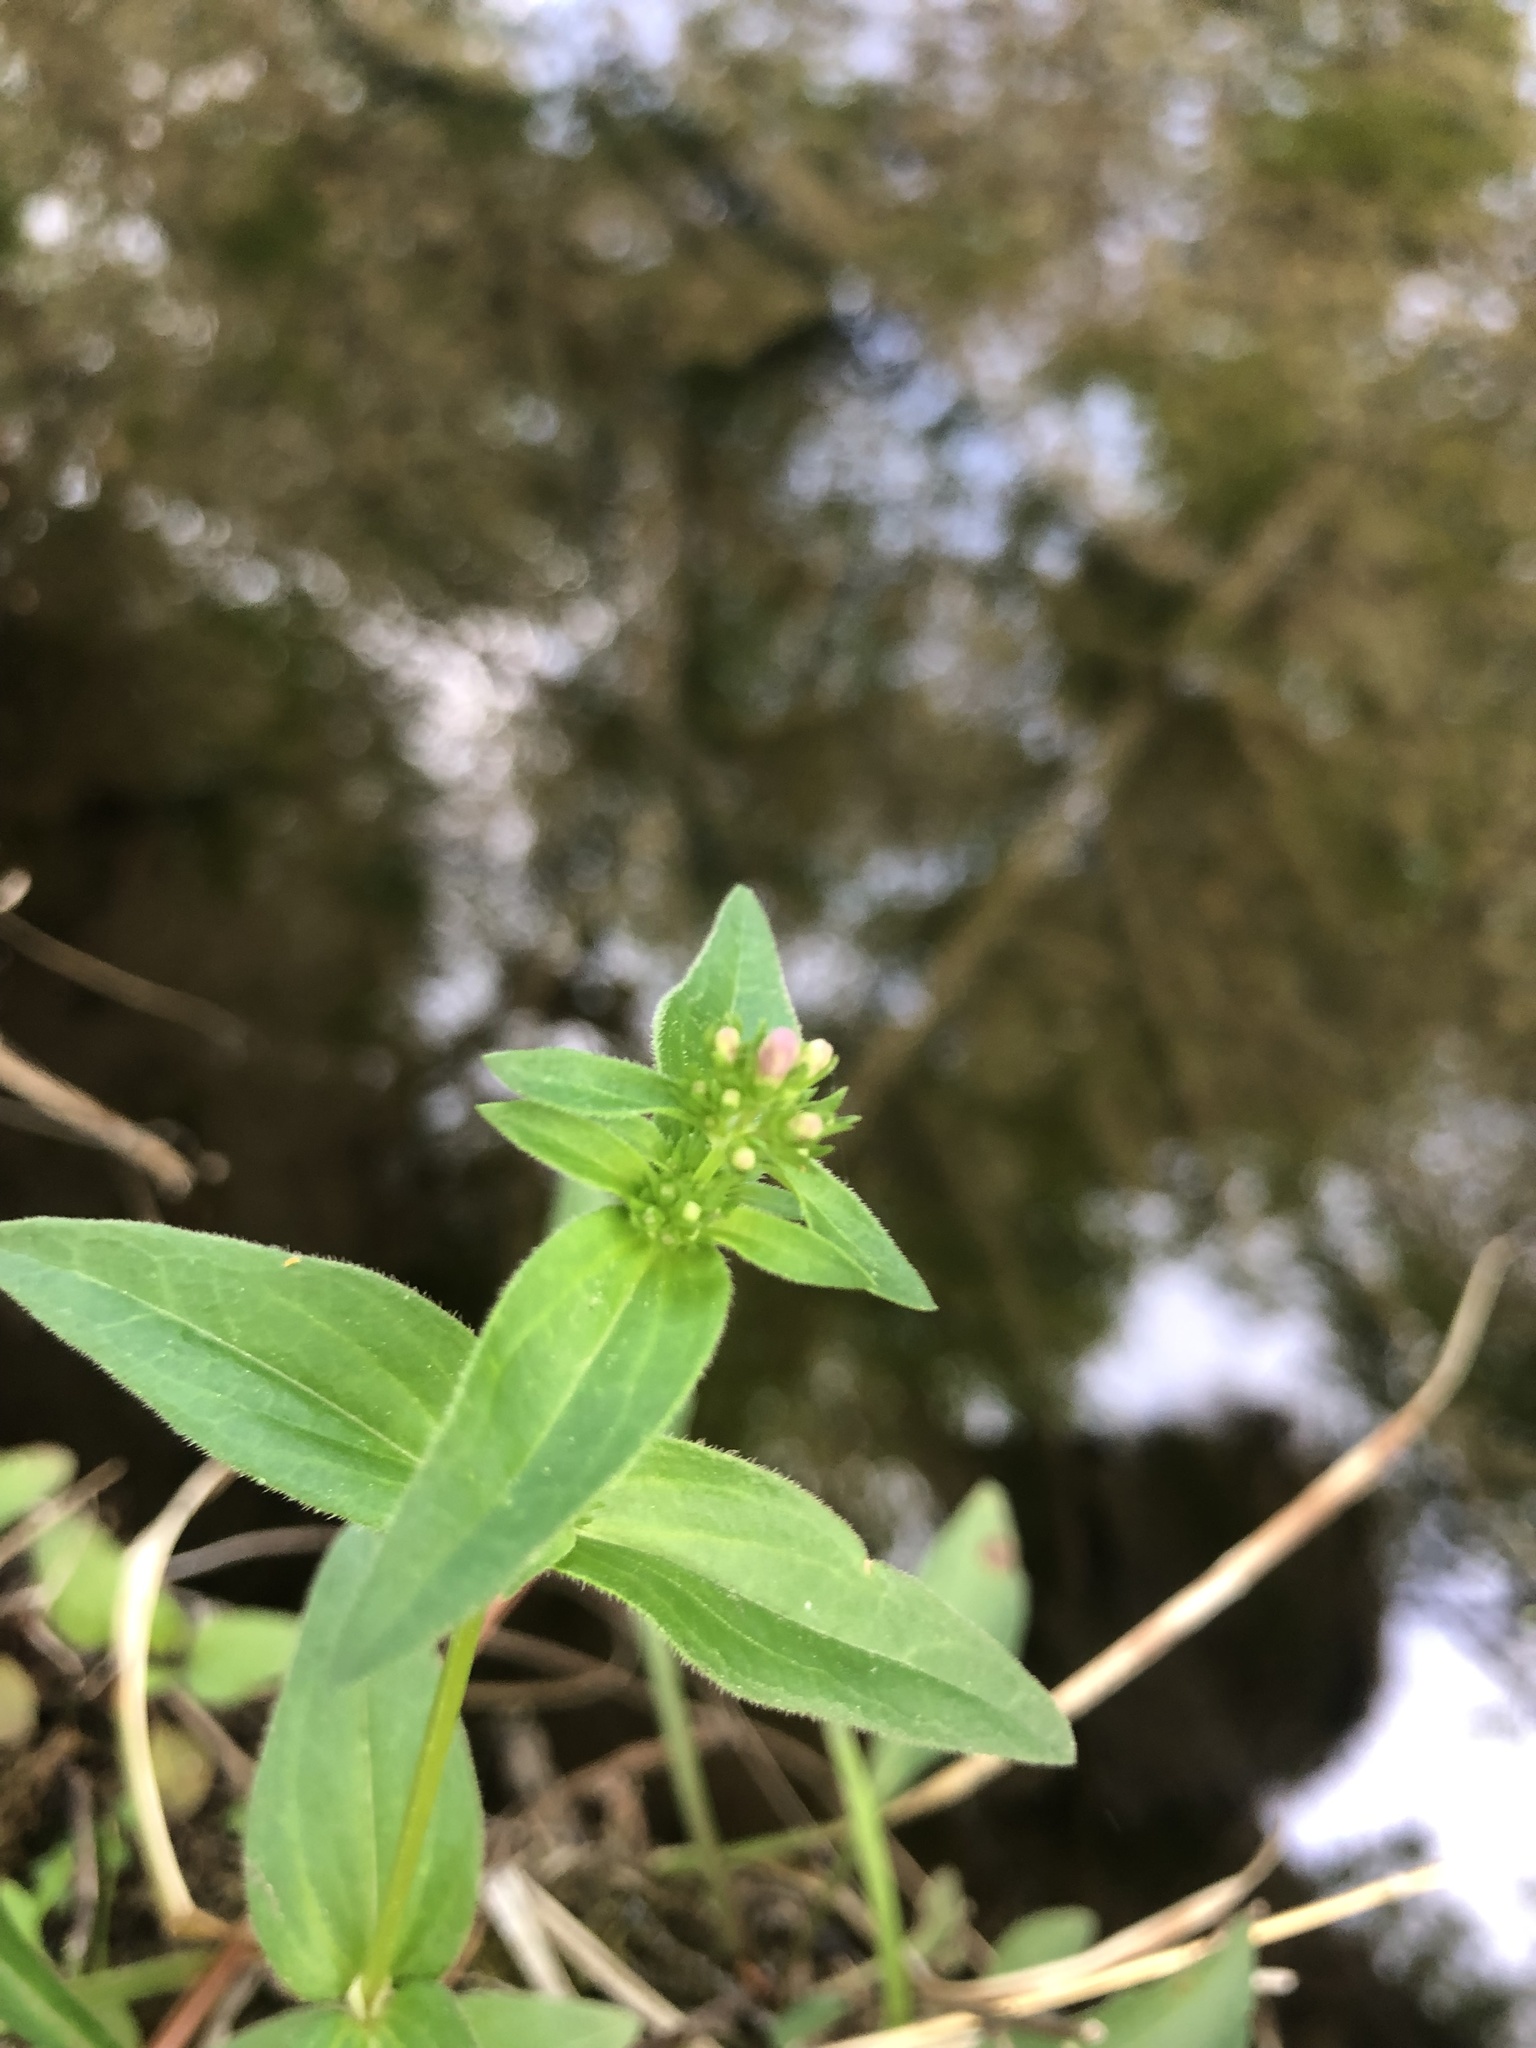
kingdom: Plantae
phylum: Tracheophyta
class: Magnoliopsida
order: Gentianales
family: Rubiaceae
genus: Houstonia
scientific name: Houstonia purpurea
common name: Summer bluet
